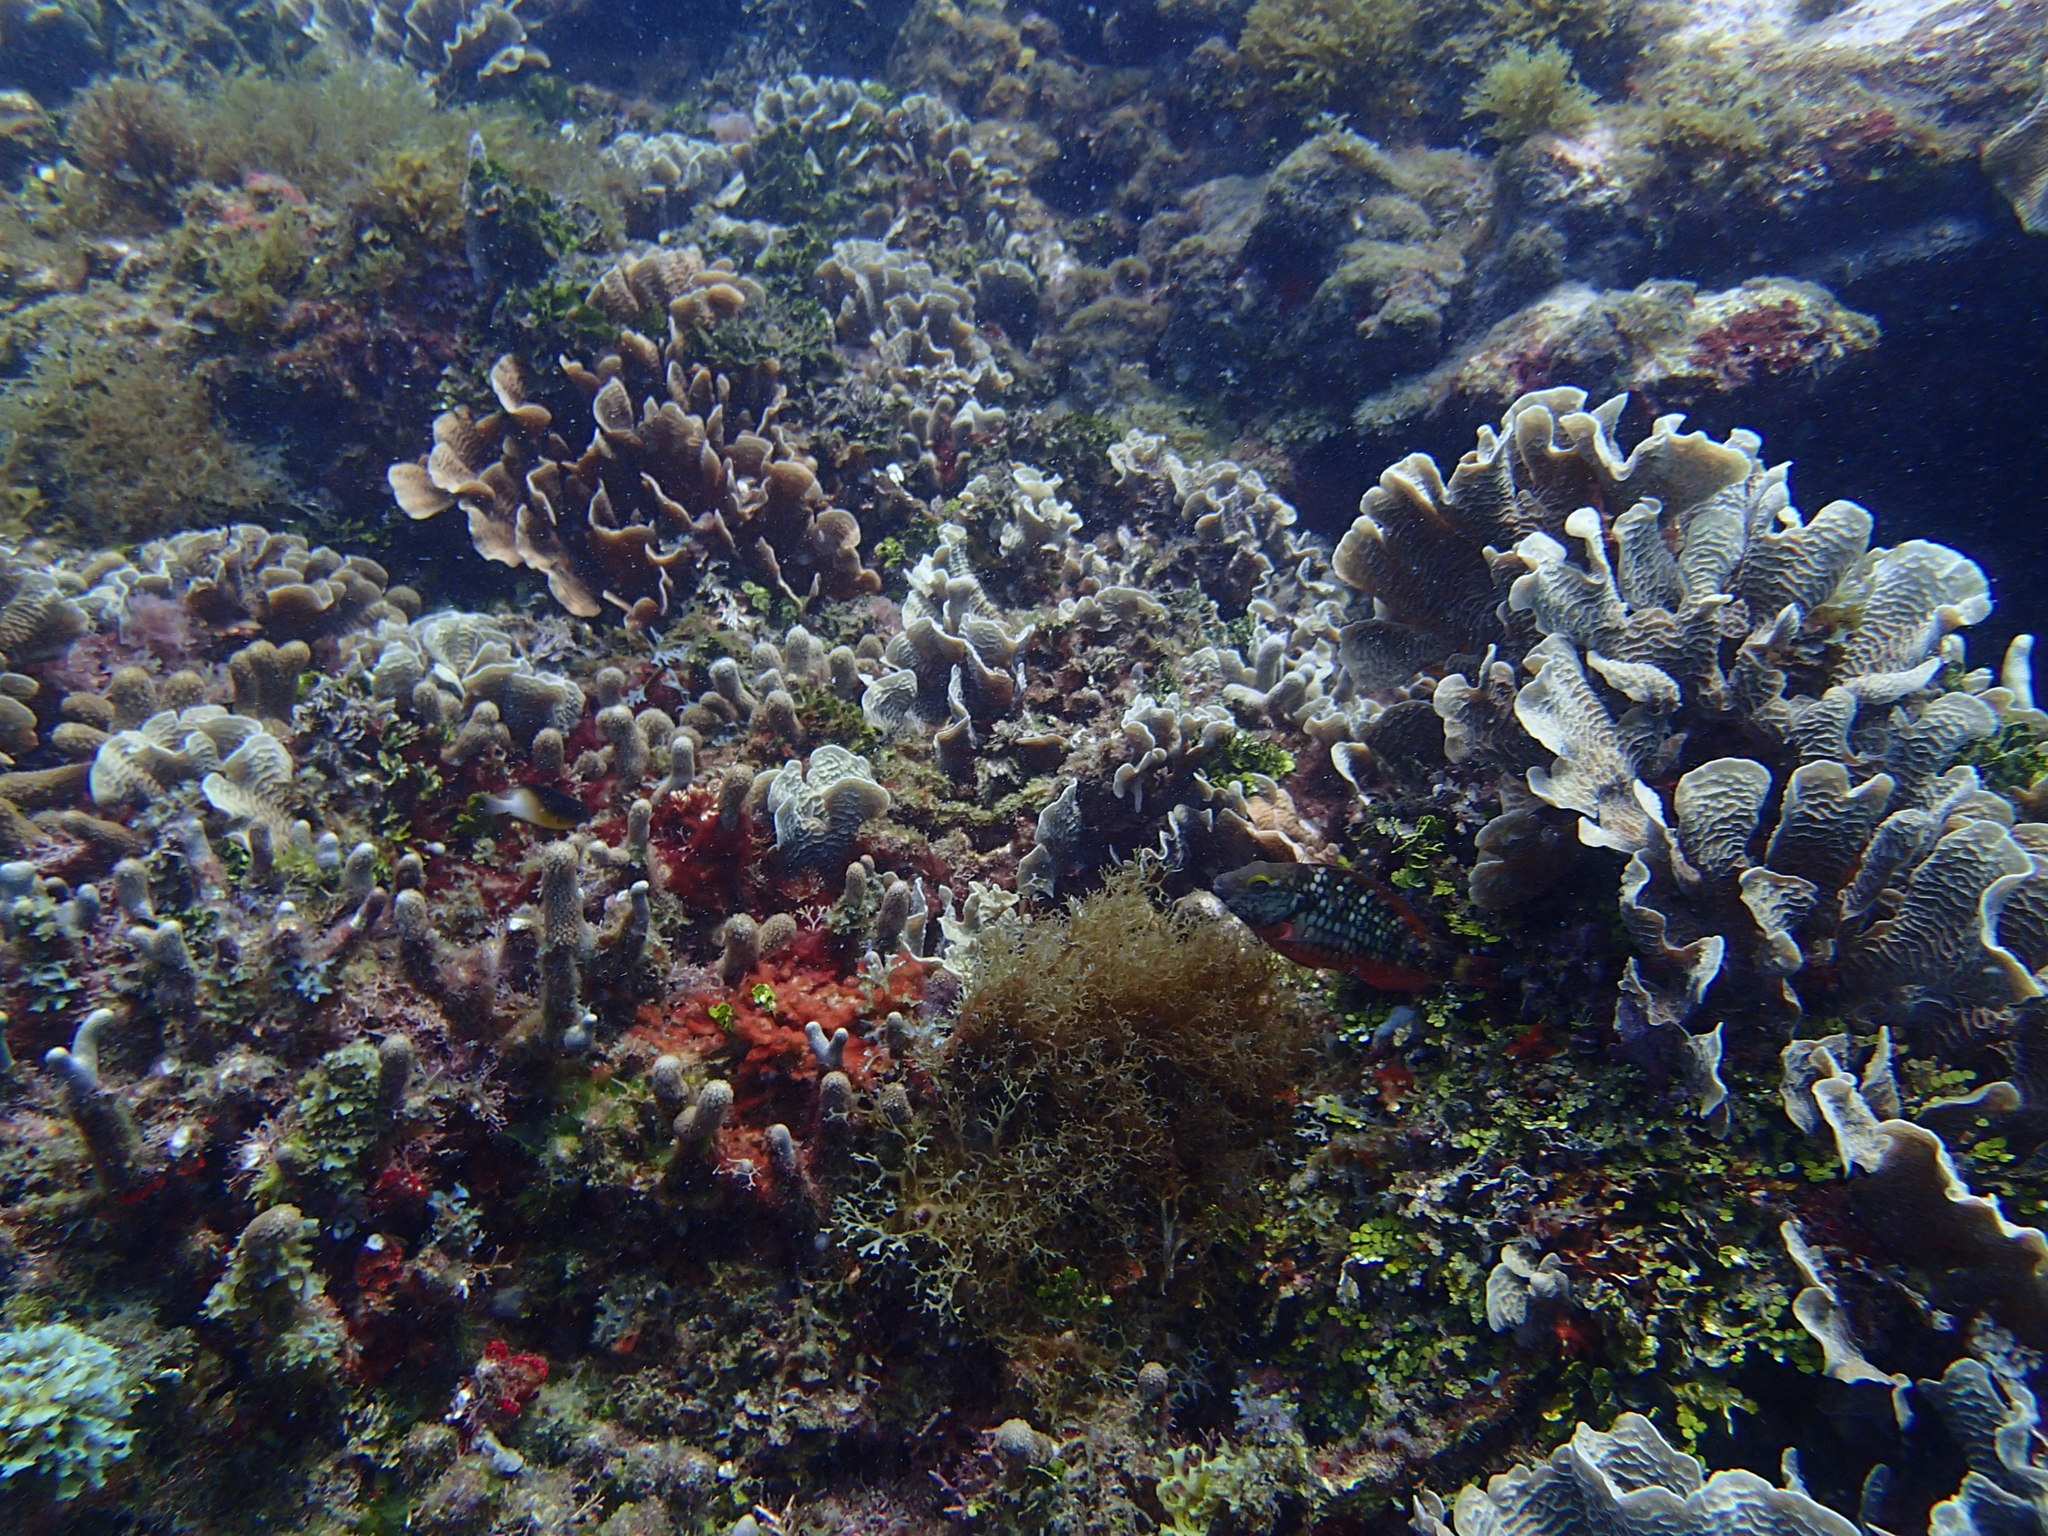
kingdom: Animalia
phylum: Cnidaria
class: Anthozoa
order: Scleractinia
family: Agariciidae
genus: Agaricia
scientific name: Agaricia tenuifolia
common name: Thin leaf lettuce coral
